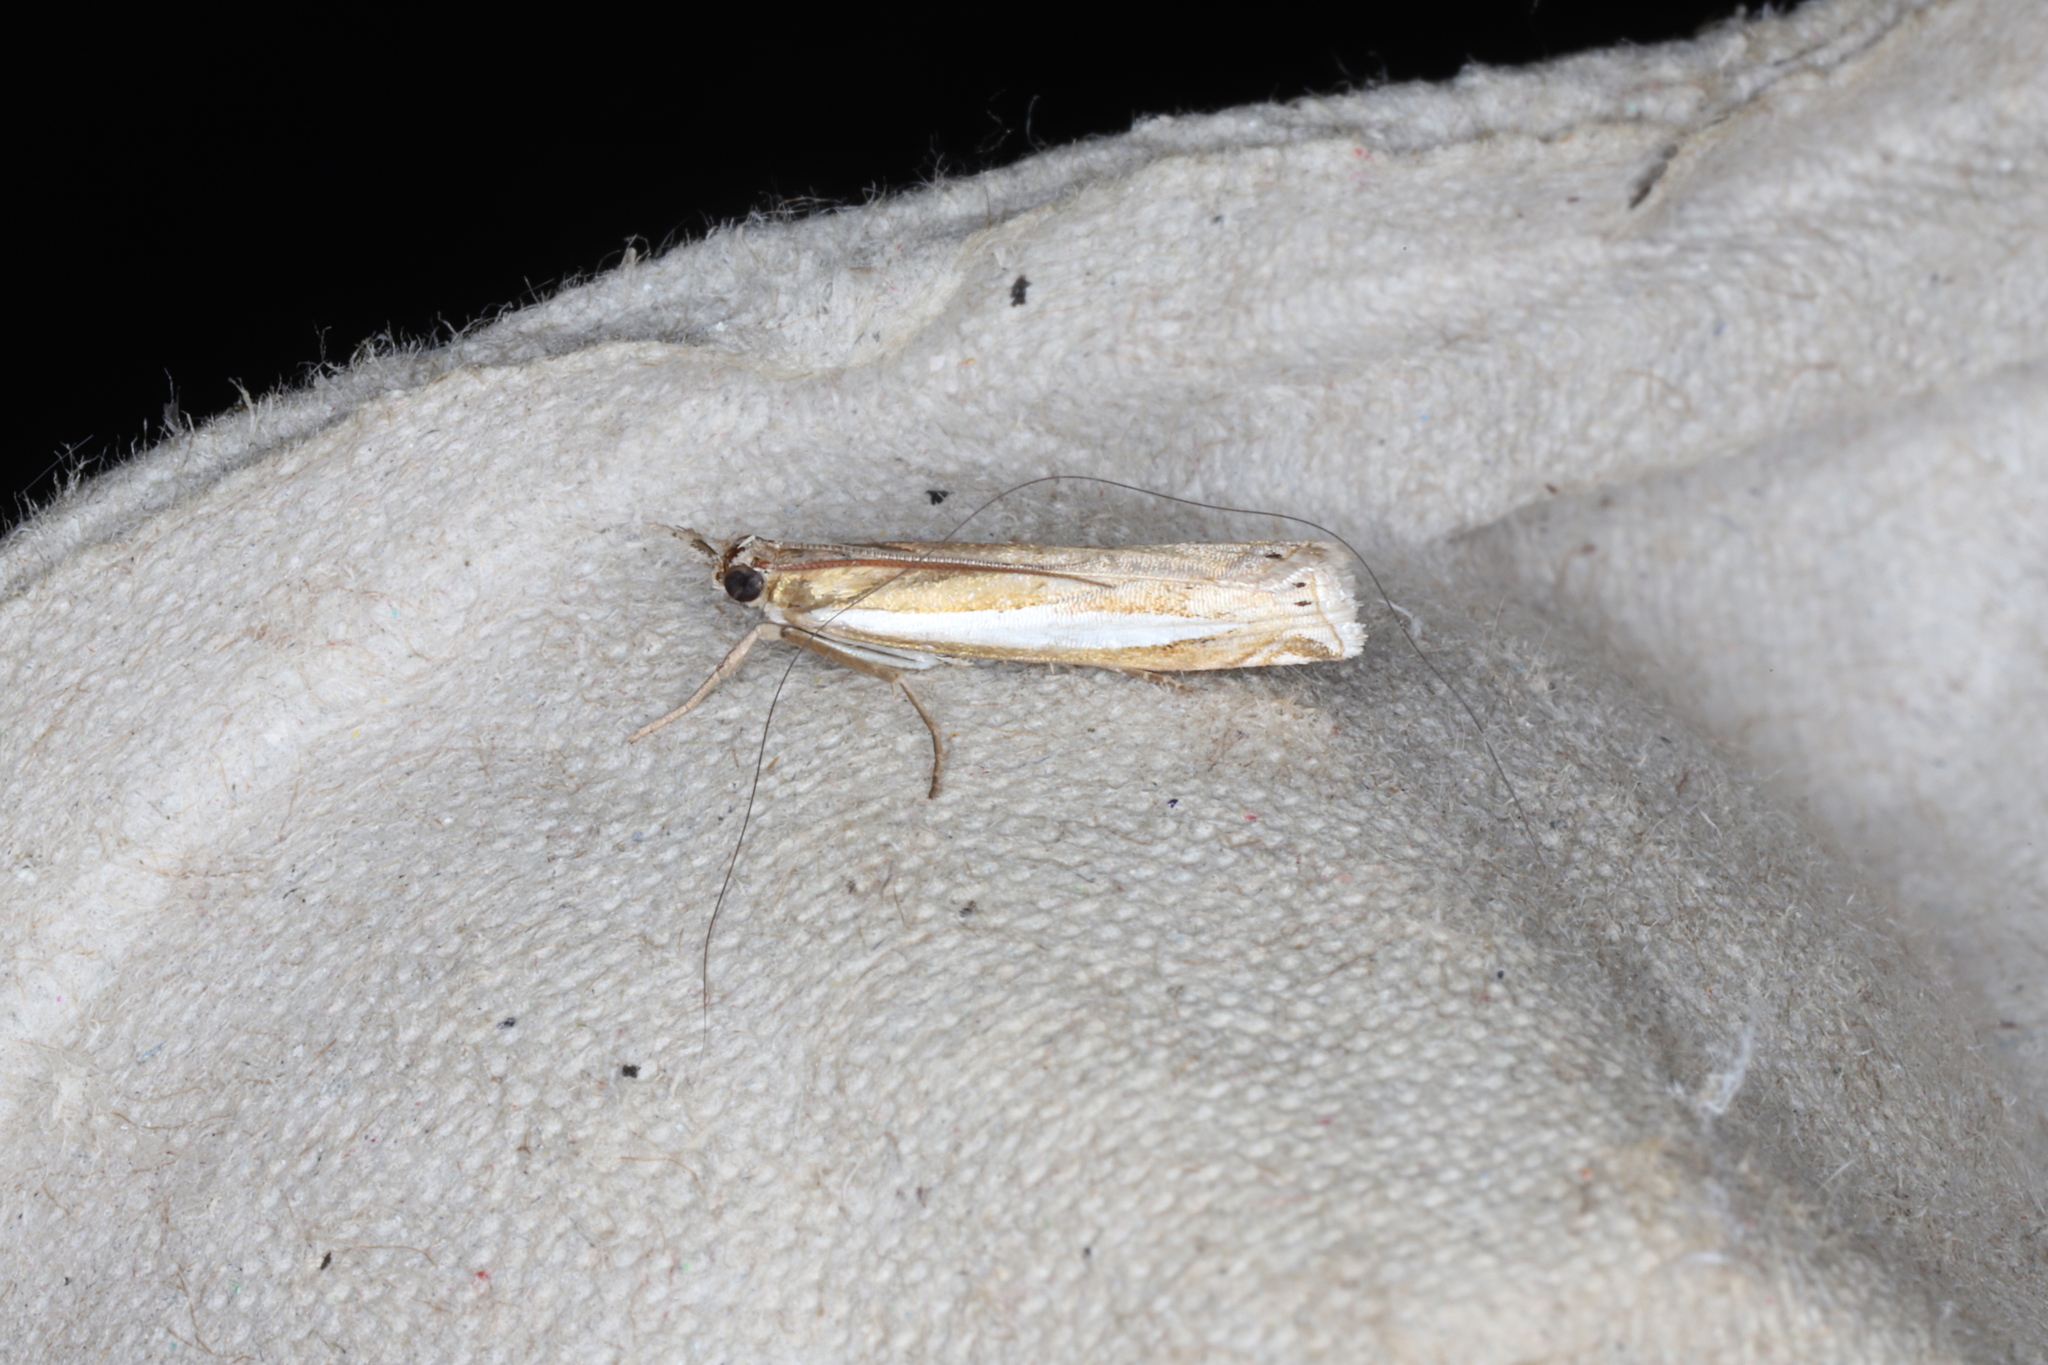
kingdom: Animalia
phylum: Arthropoda
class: Insecta
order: Lepidoptera
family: Crambidae
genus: Crambus
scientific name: Crambus praefectellus
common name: Common grass-veneer
